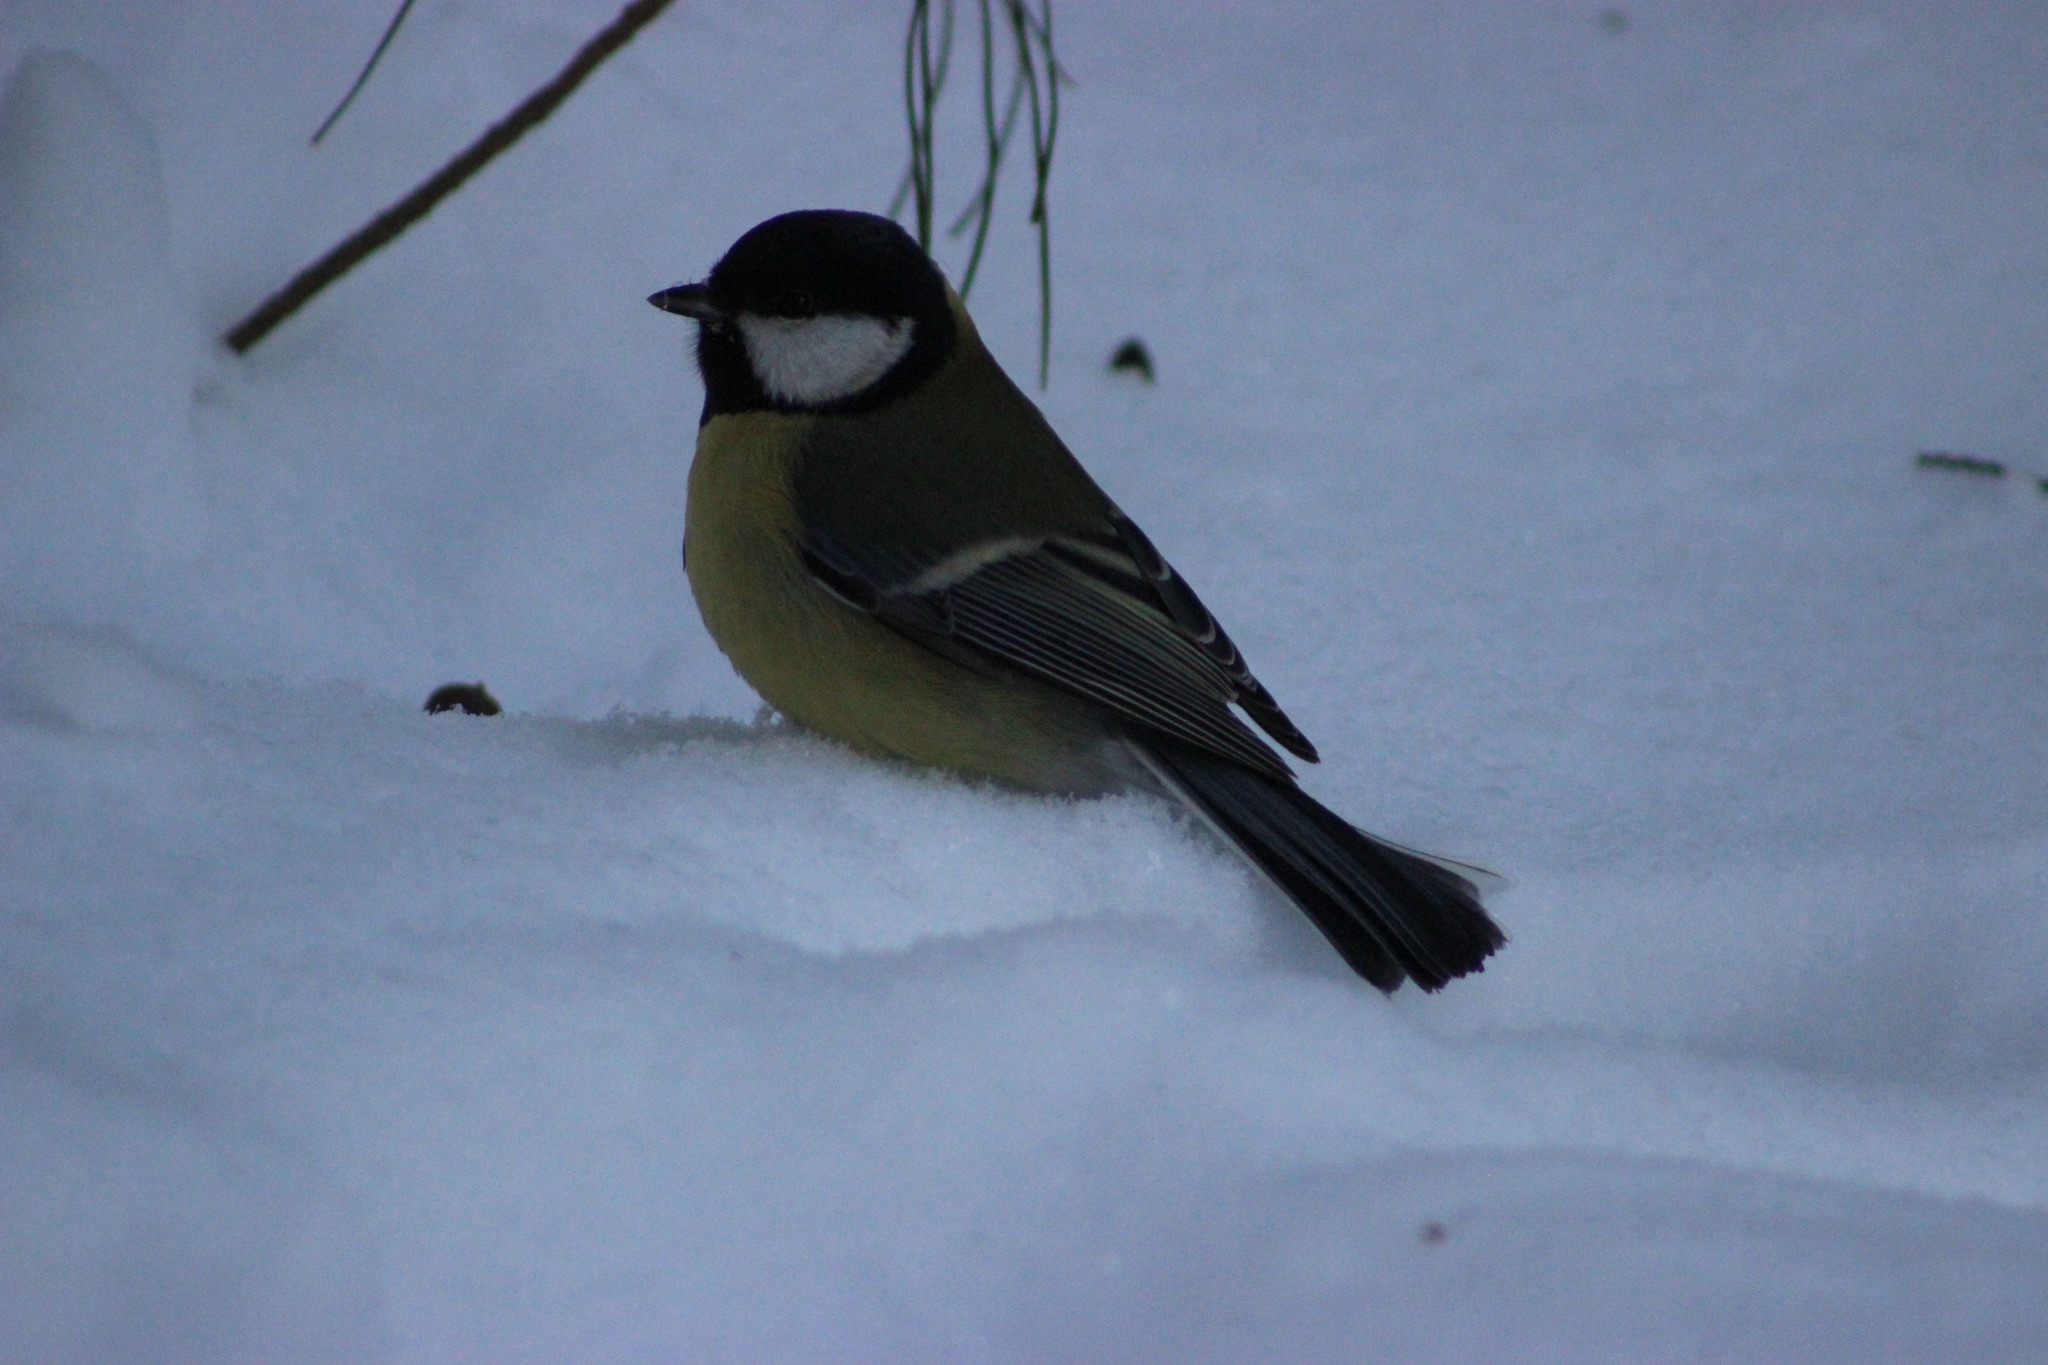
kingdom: Animalia
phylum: Chordata
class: Aves
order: Passeriformes
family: Paridae
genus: Parus
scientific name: Parus major
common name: Great tit
